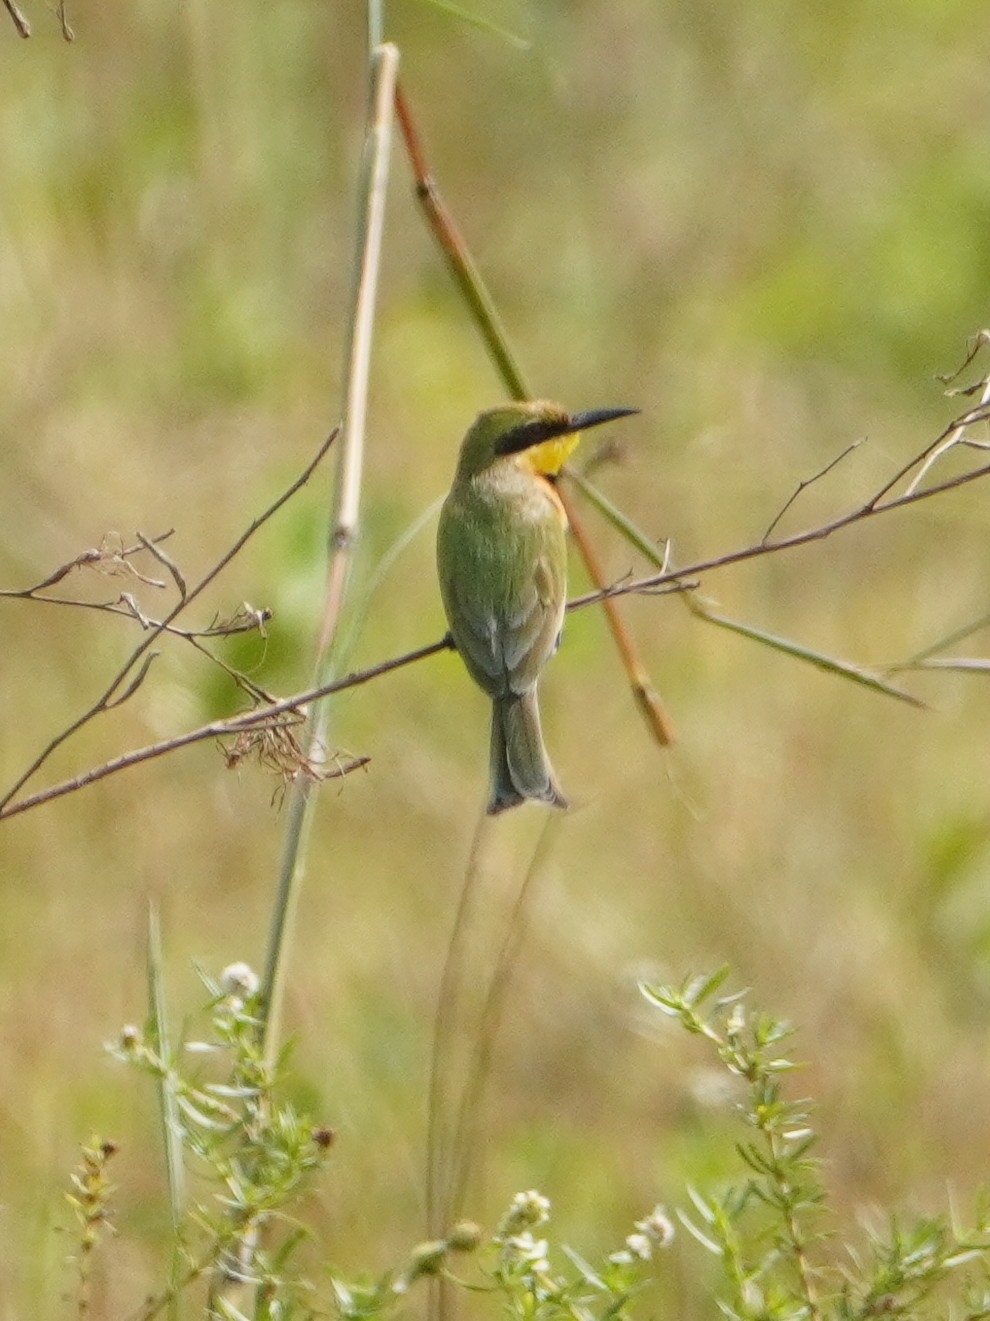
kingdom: Animalia
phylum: Chordata
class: Aves
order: Coraciiformes
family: Meropidae
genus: Merops
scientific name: Merops pusillus
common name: Little bee-eater
